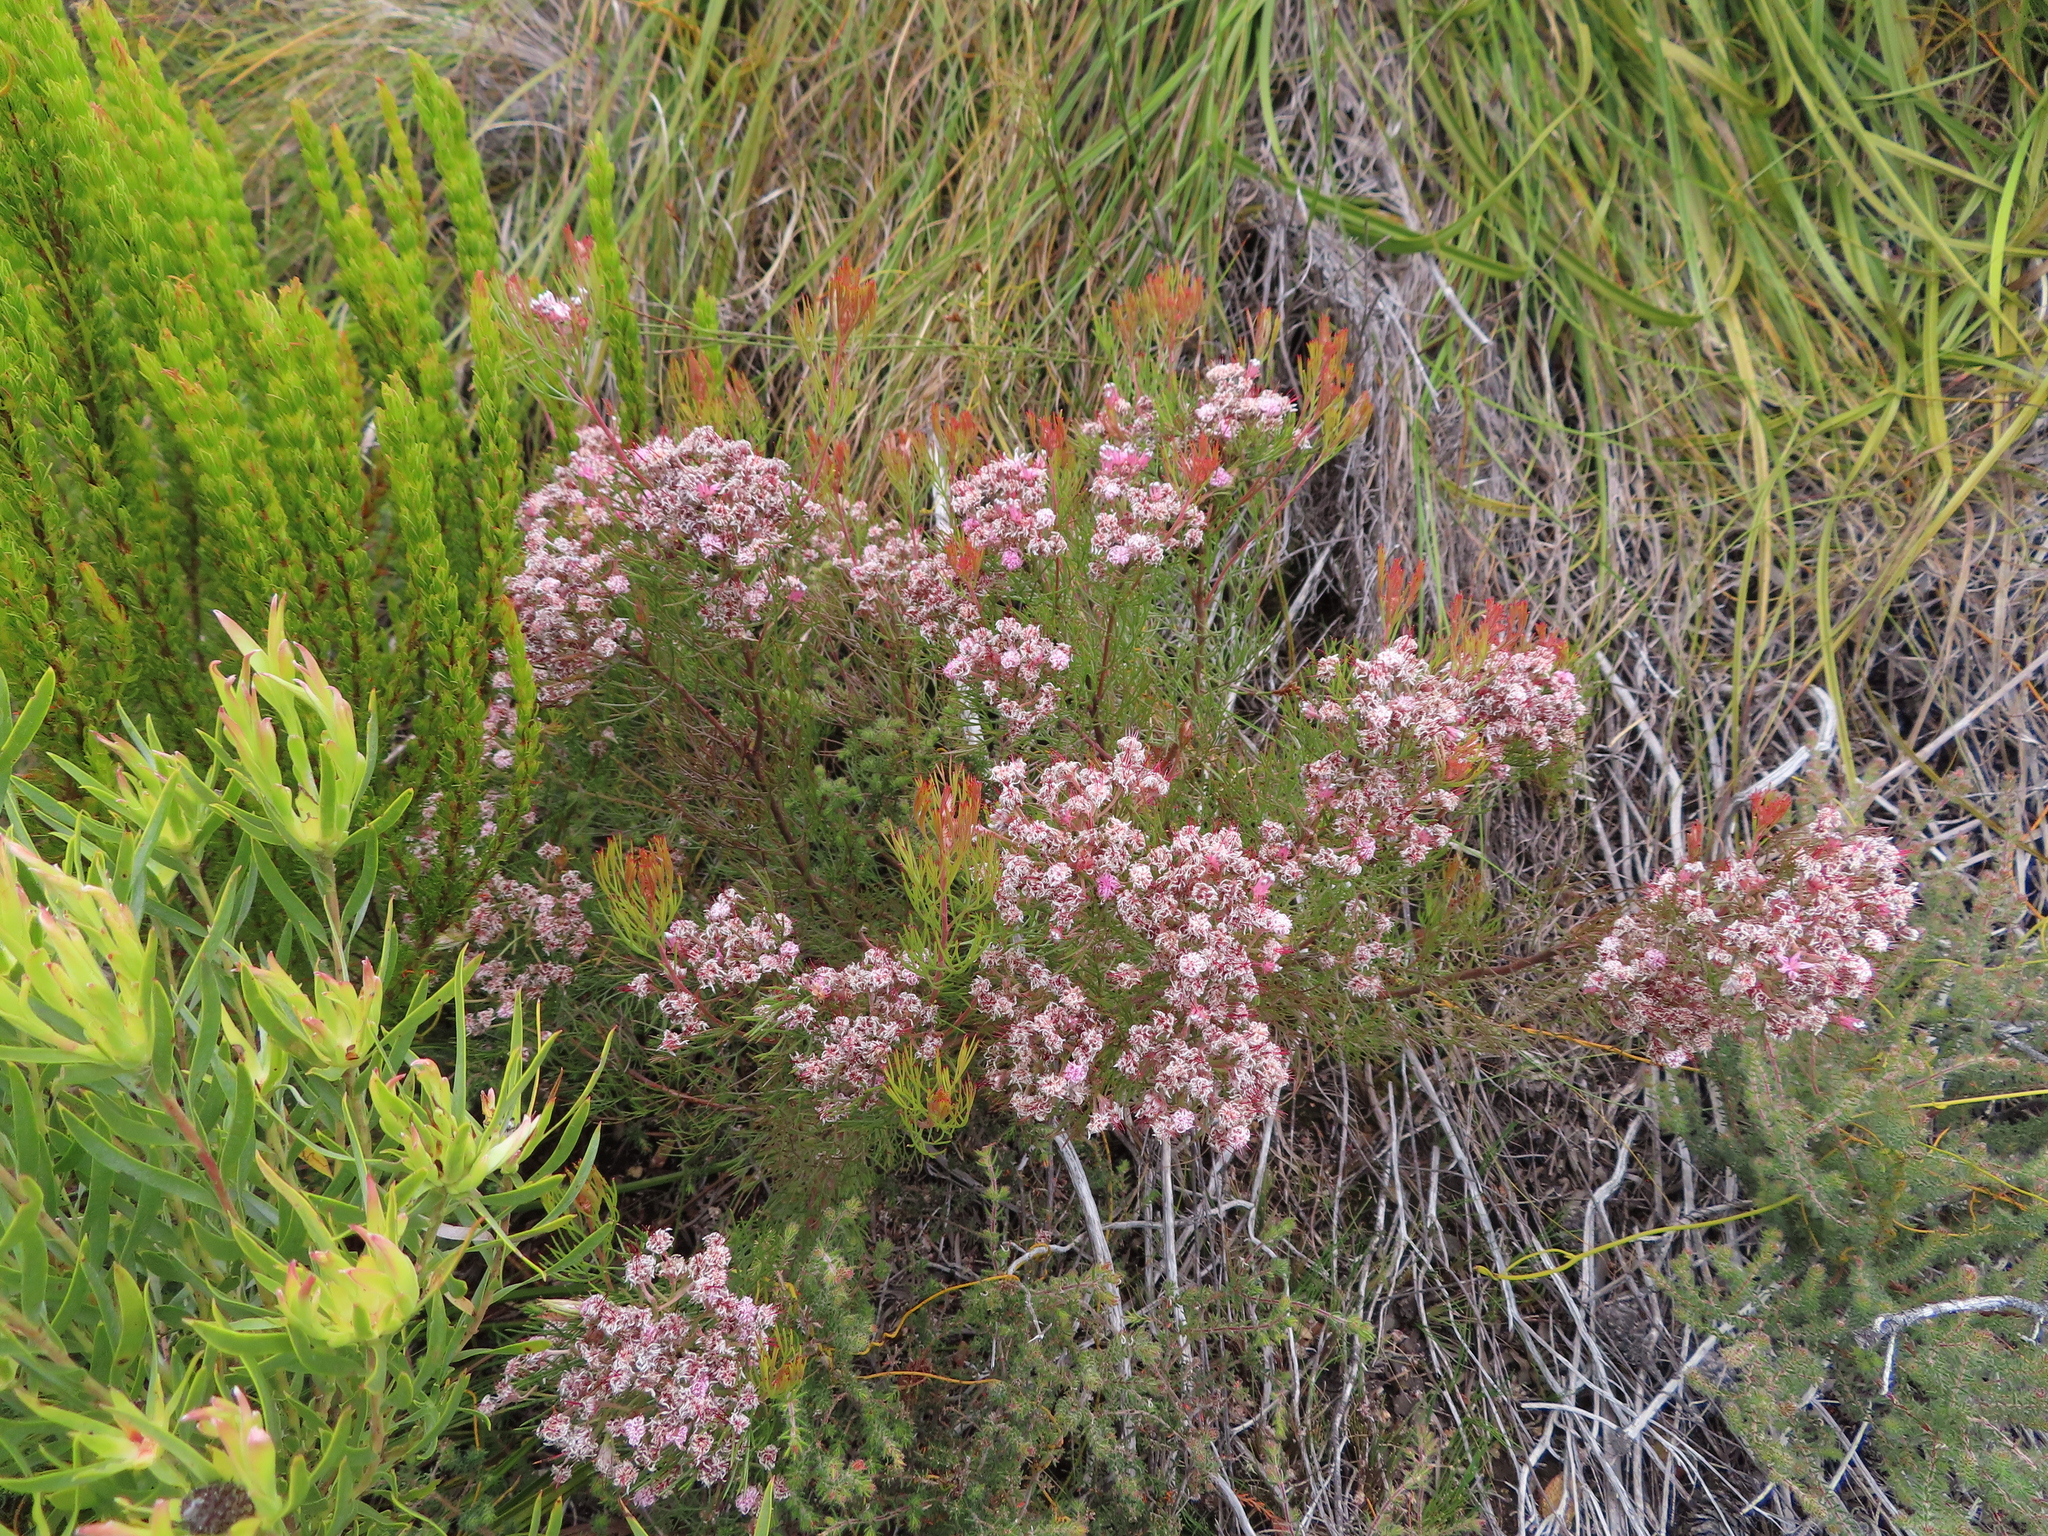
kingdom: Plantae
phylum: Tracheophyta
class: Magnoliopsida
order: Proteales
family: Proteaceae
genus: Serruria
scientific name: Serruria fasciflora
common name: Common pin spiderhead
